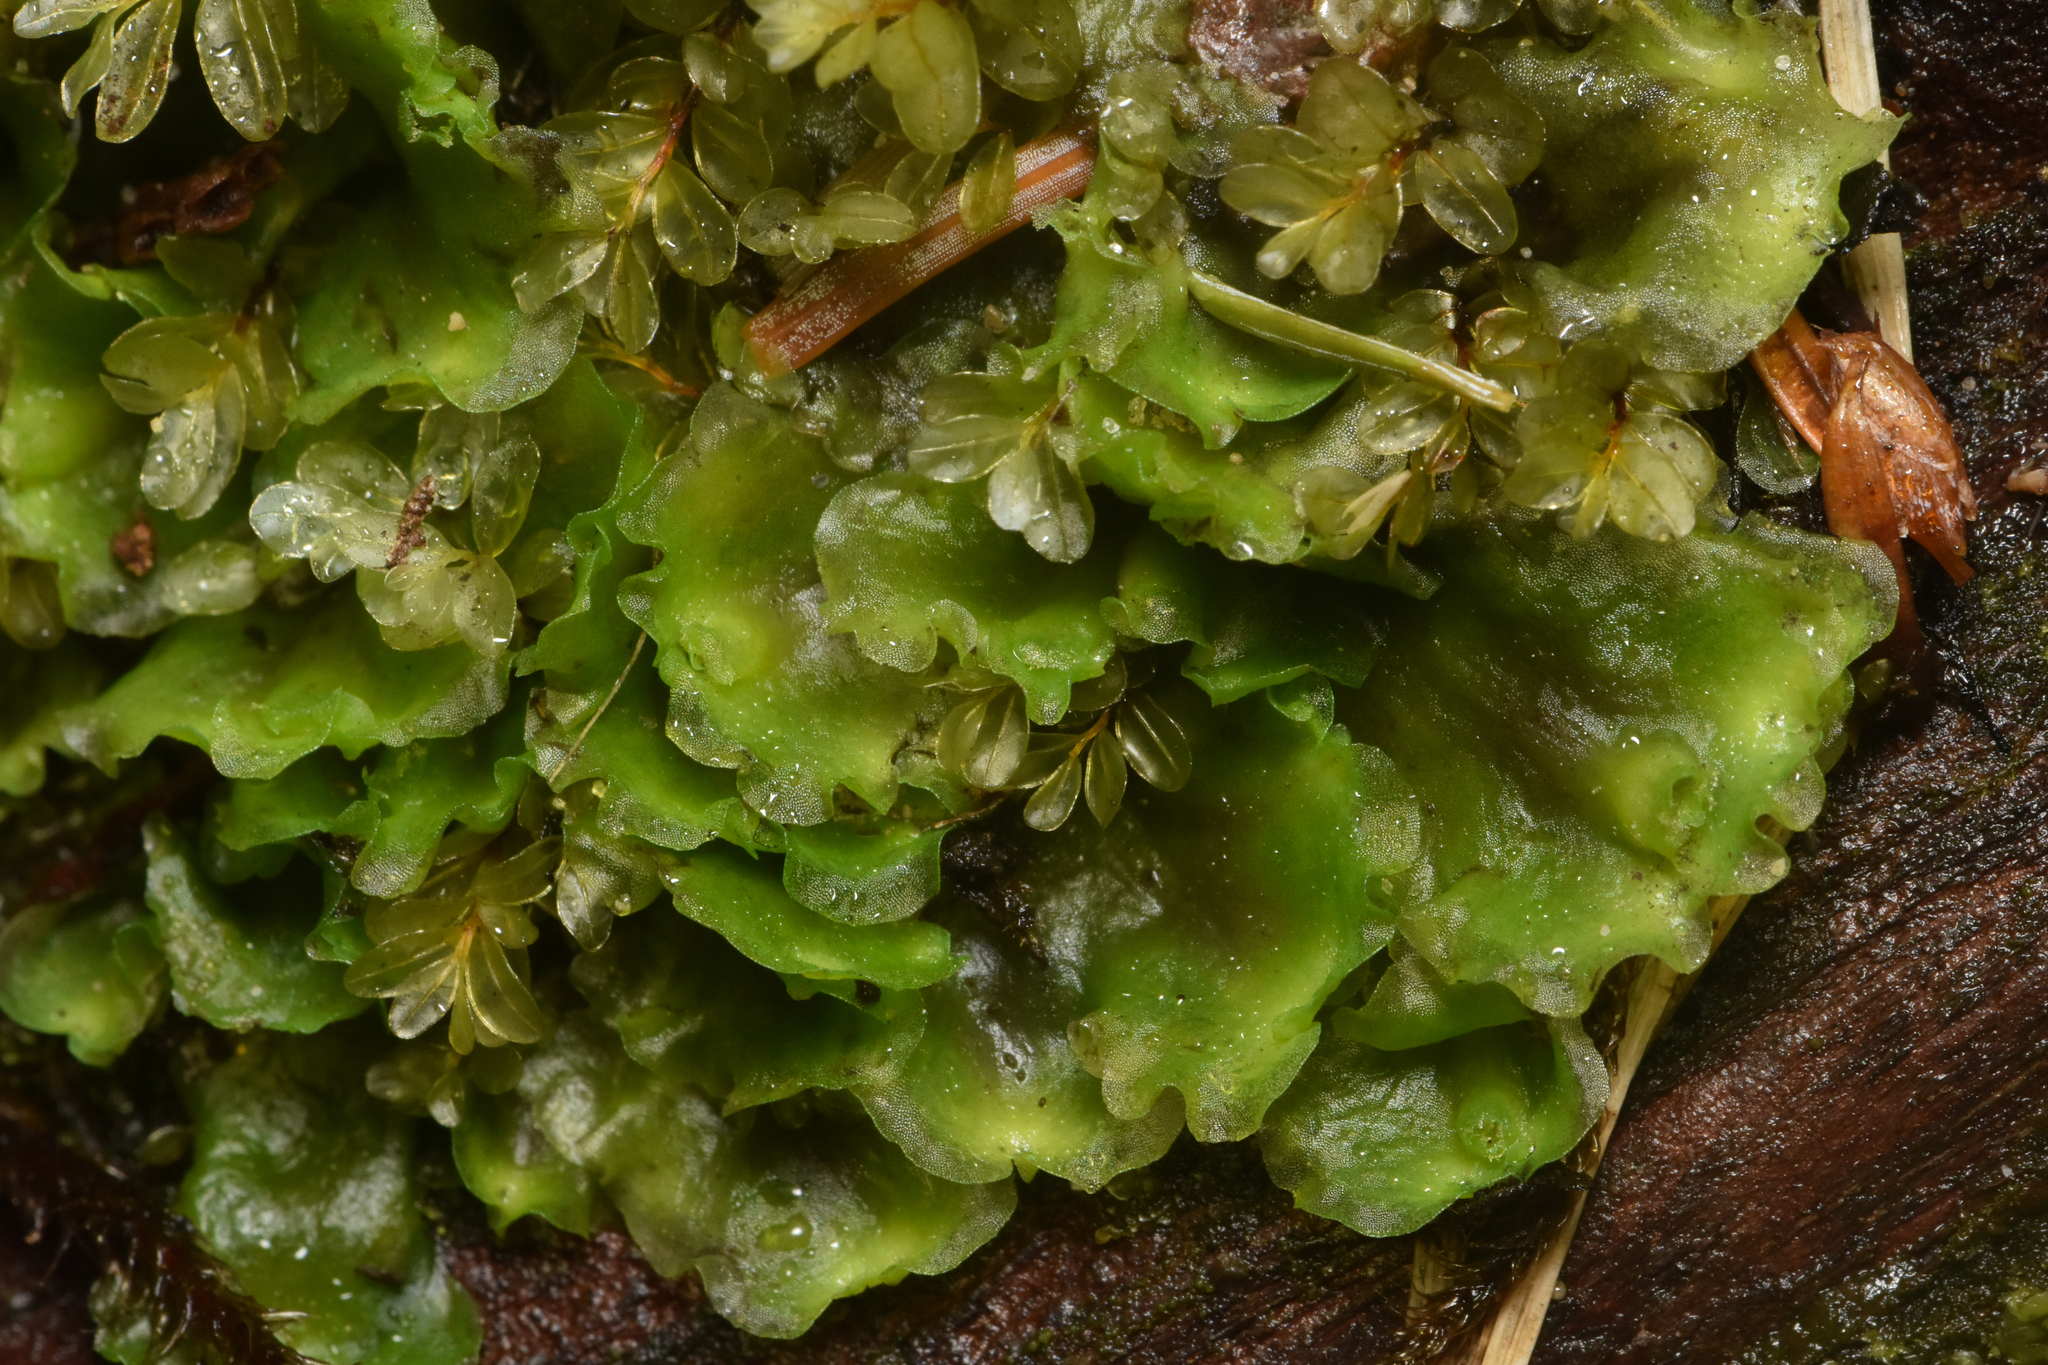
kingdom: Plantae
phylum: Marchantiophyta
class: Jungermanniopsida
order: Pelliales
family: Pelliaceae
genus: Pellia
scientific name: Pellia neesiana
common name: Nees  pellia
